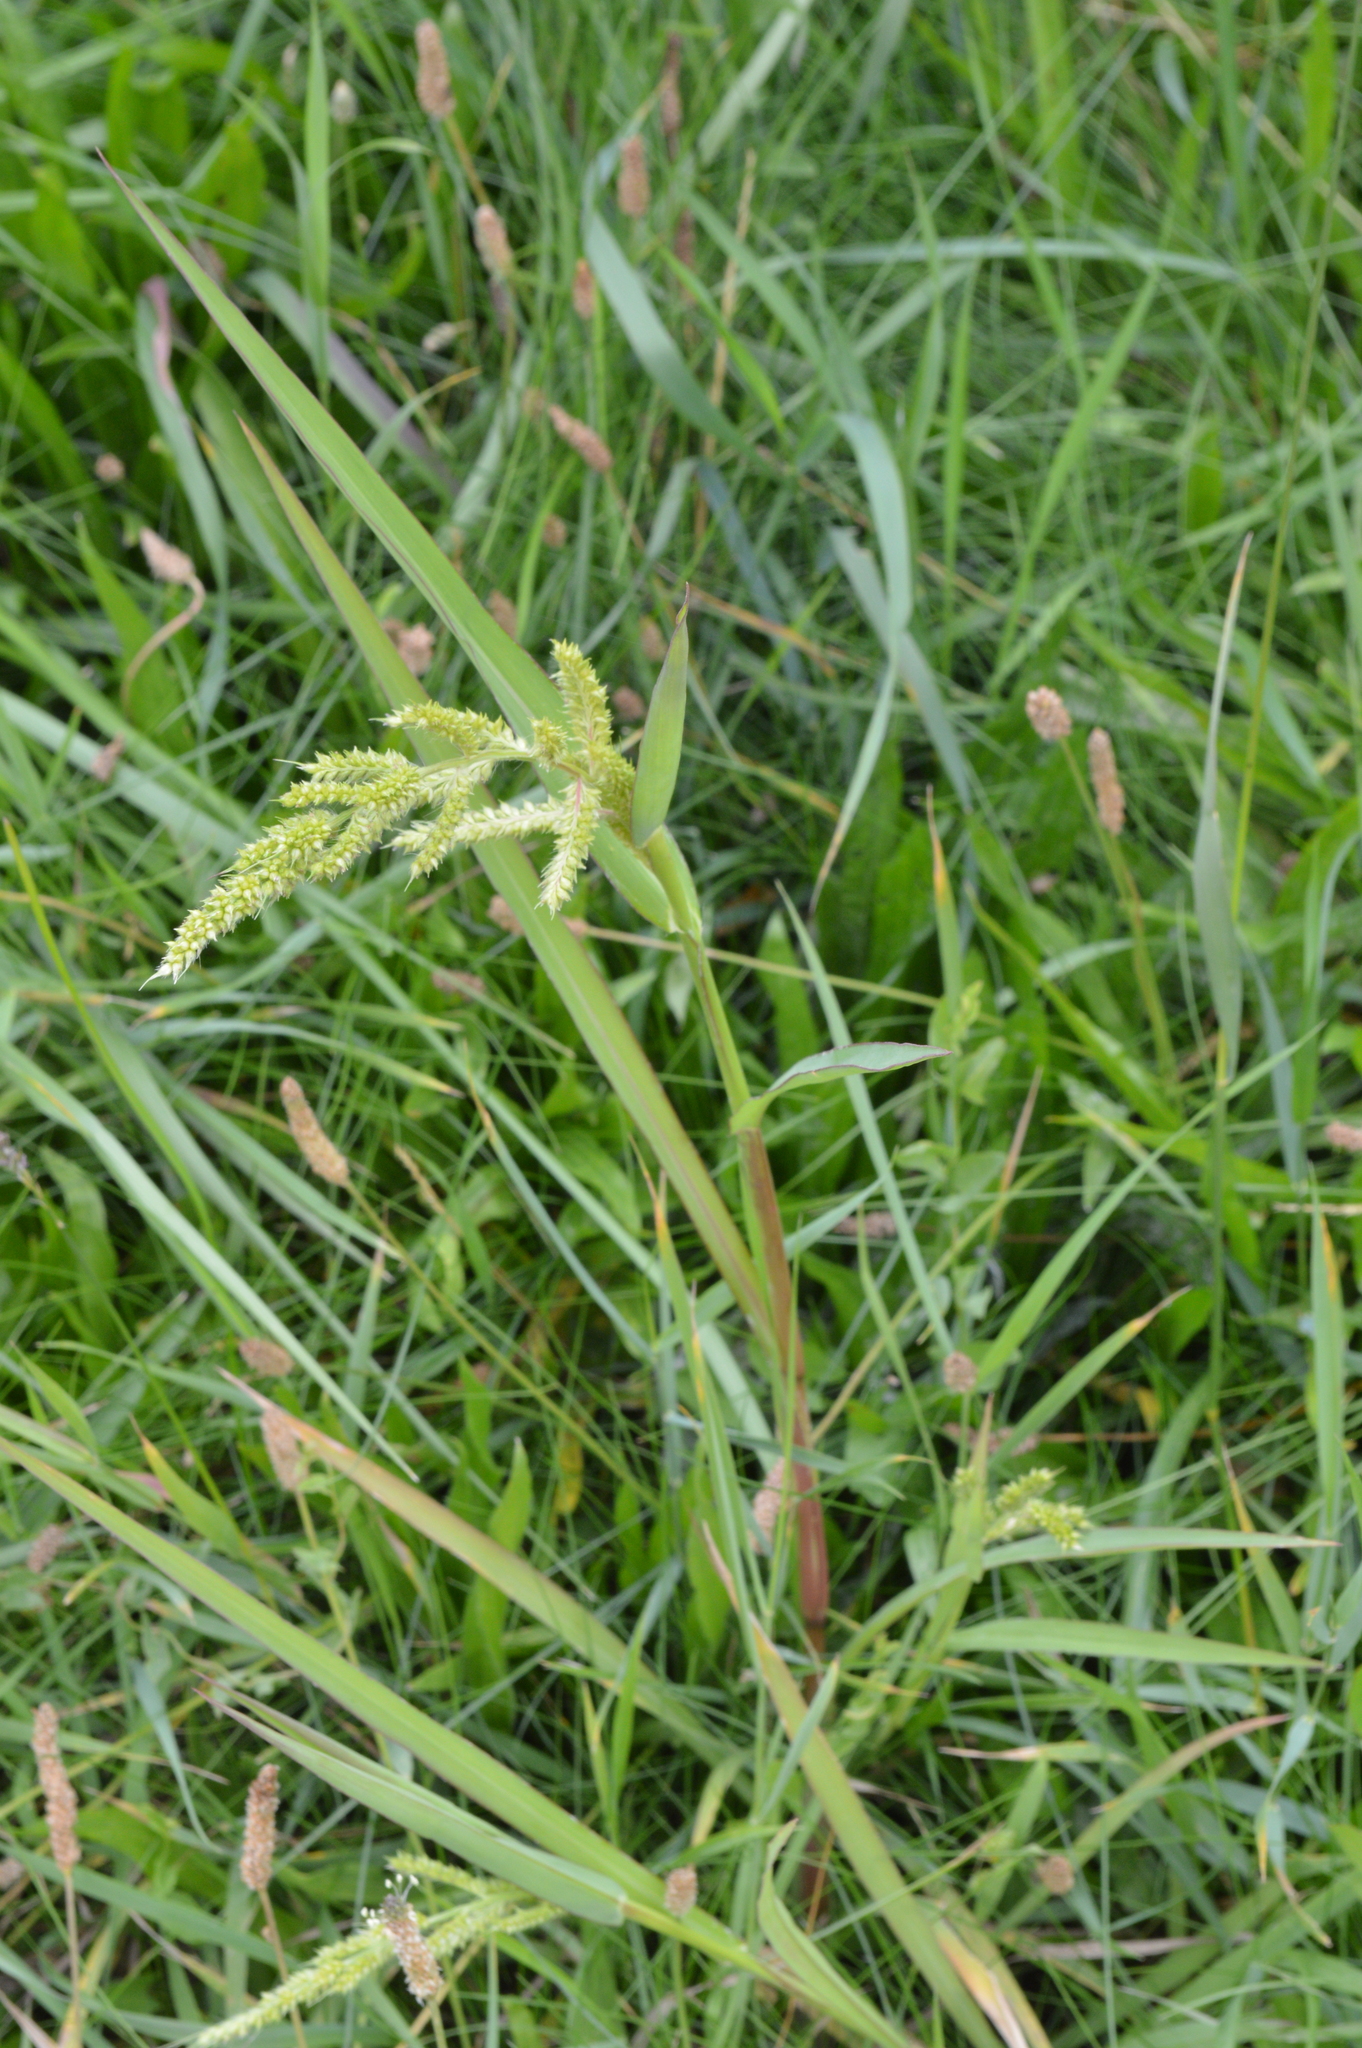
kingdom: Plantae
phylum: Tracheophyta
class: Liliopsida
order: Poales
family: Poaceae
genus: Echinochloa
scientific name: Echinochloa crus-galli
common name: Cockspur
